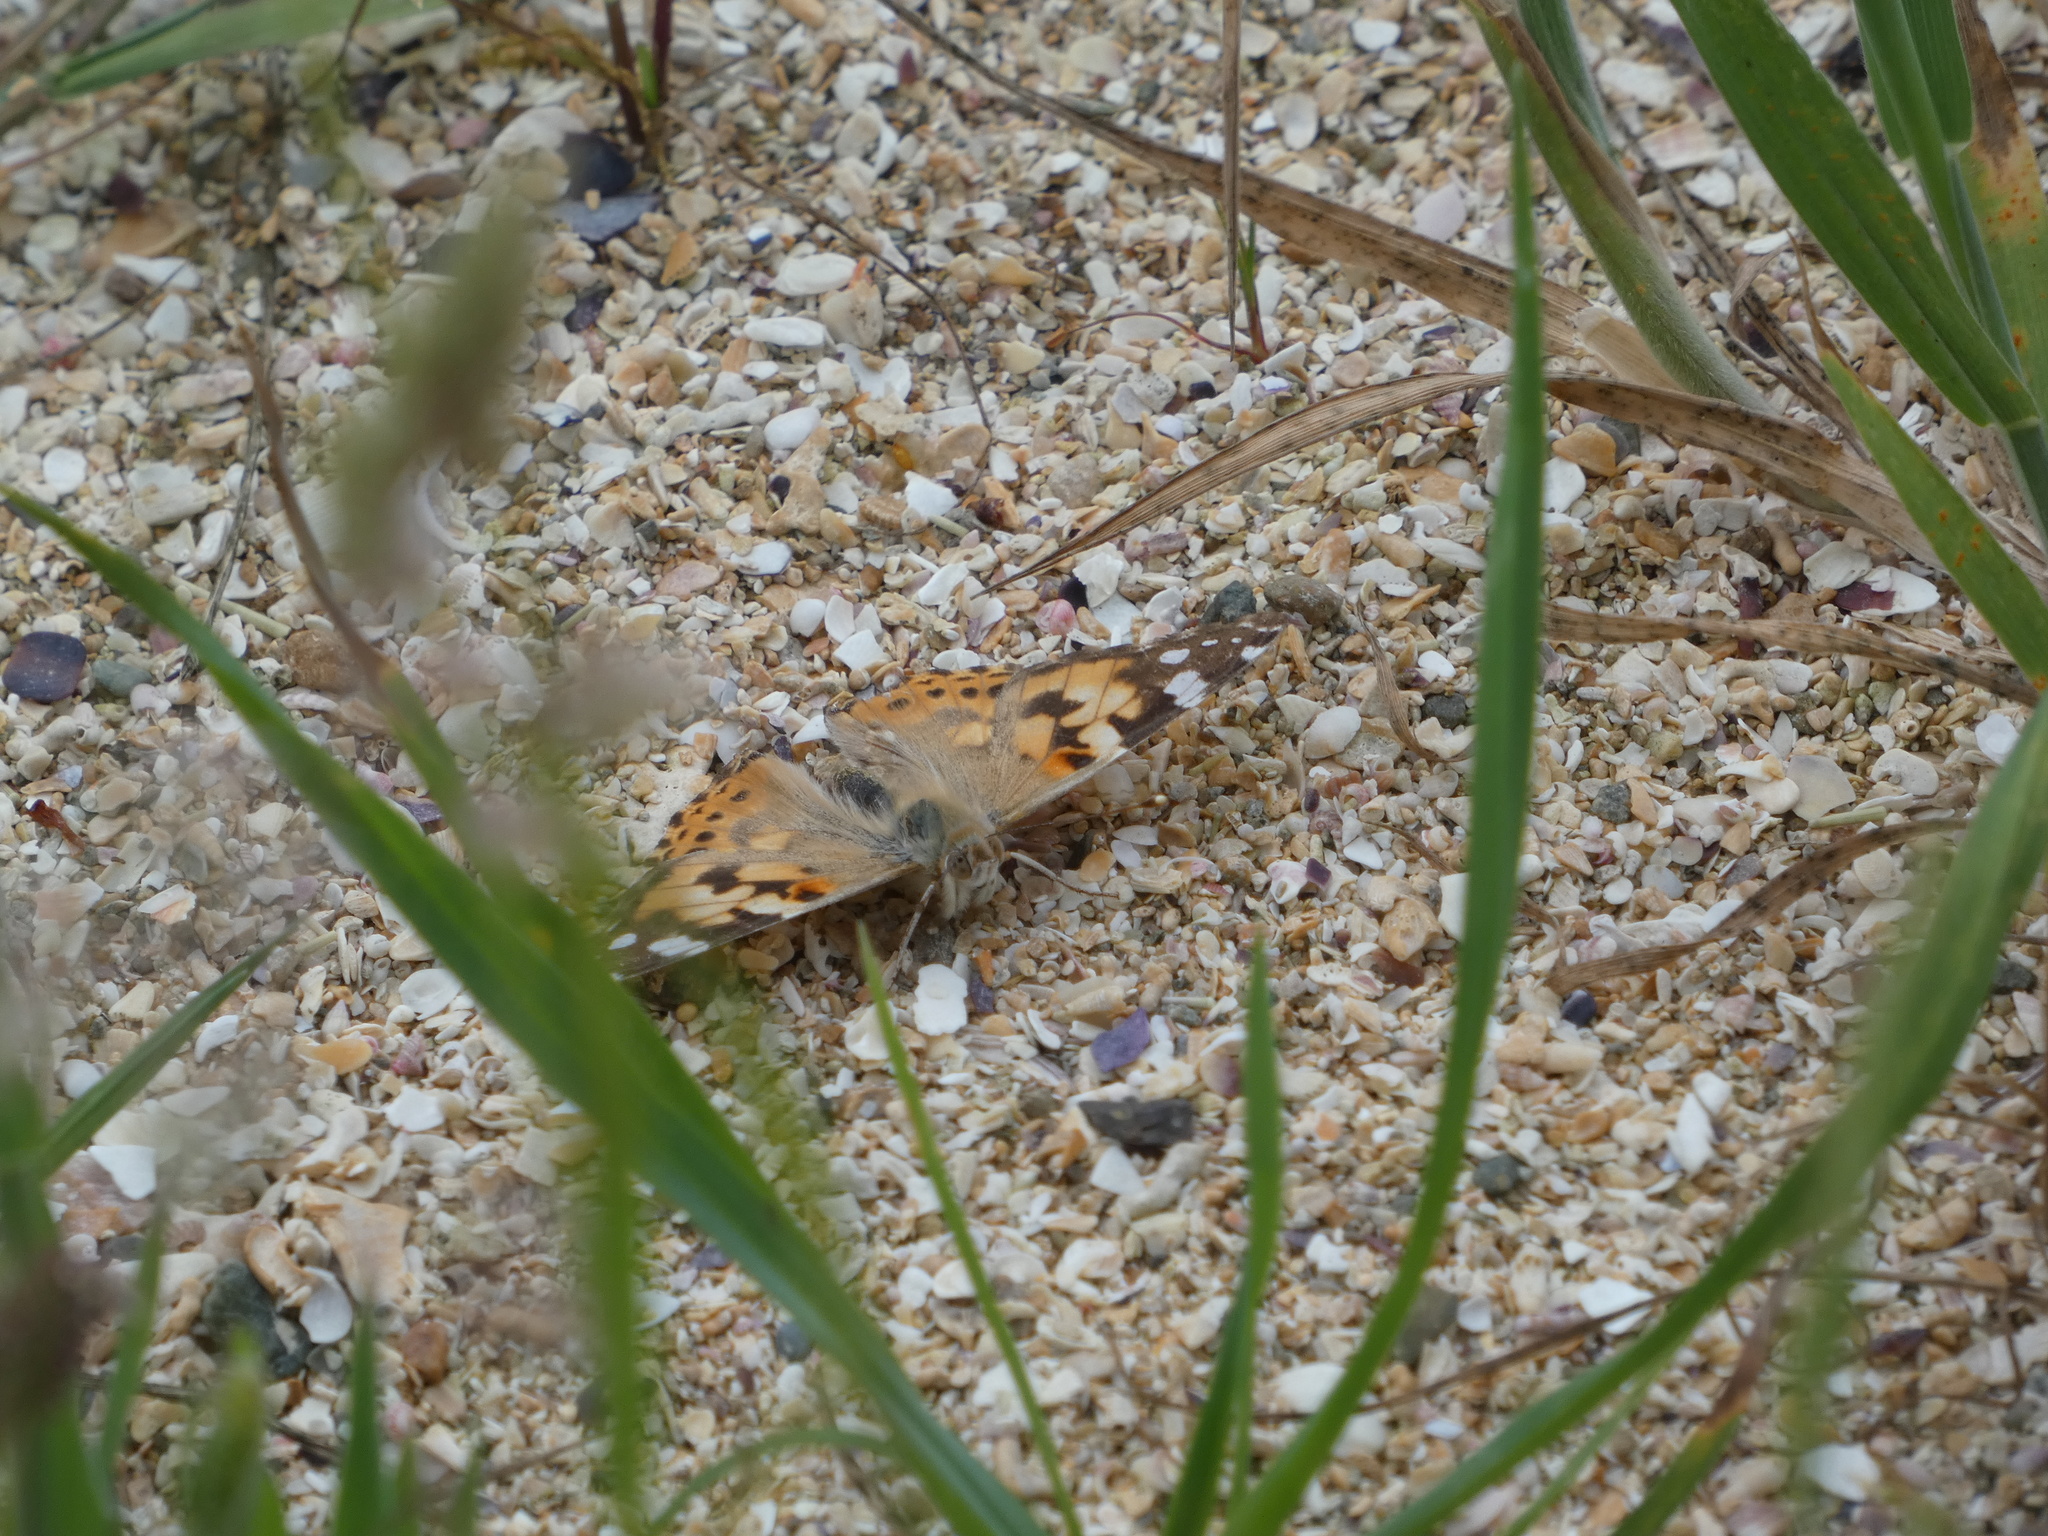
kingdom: Animalia
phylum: Arthropoda
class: Insecta
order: Lepidoptera
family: Nymphalidae
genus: Vanessa
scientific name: Vanessa cardui
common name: Painted lady
